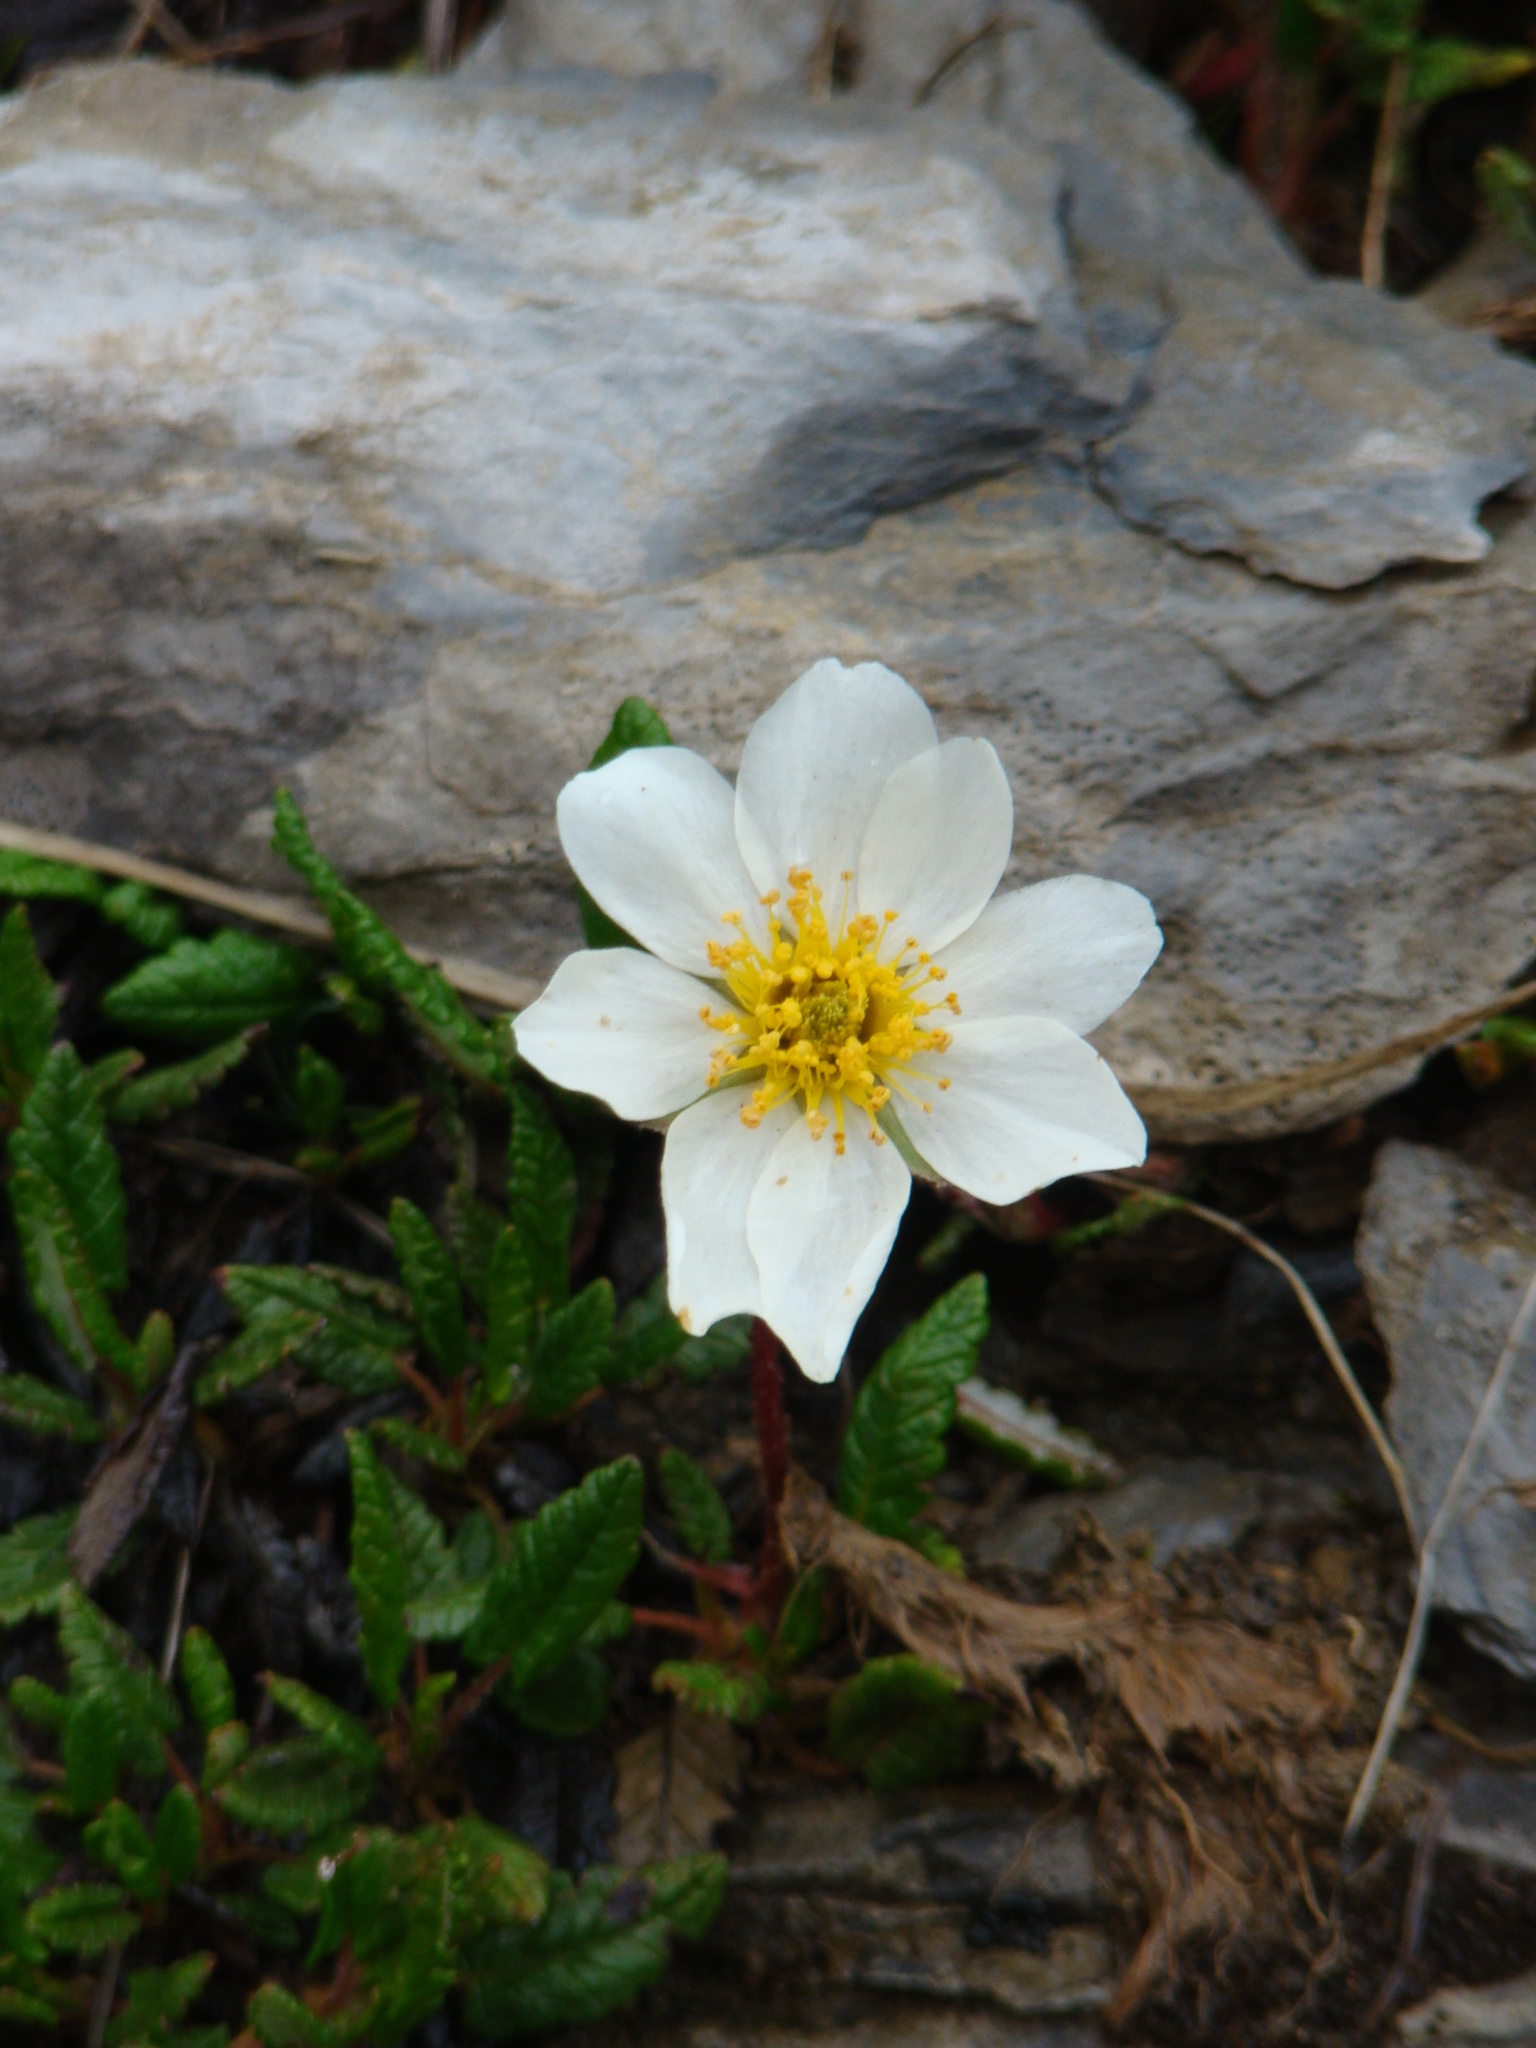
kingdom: Plantae
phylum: Tracheophyta
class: Magnoliopsida
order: Rosales
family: Rosaceae
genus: Dryas
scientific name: Dryas octopetala
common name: Eight-petal mountain-avens
